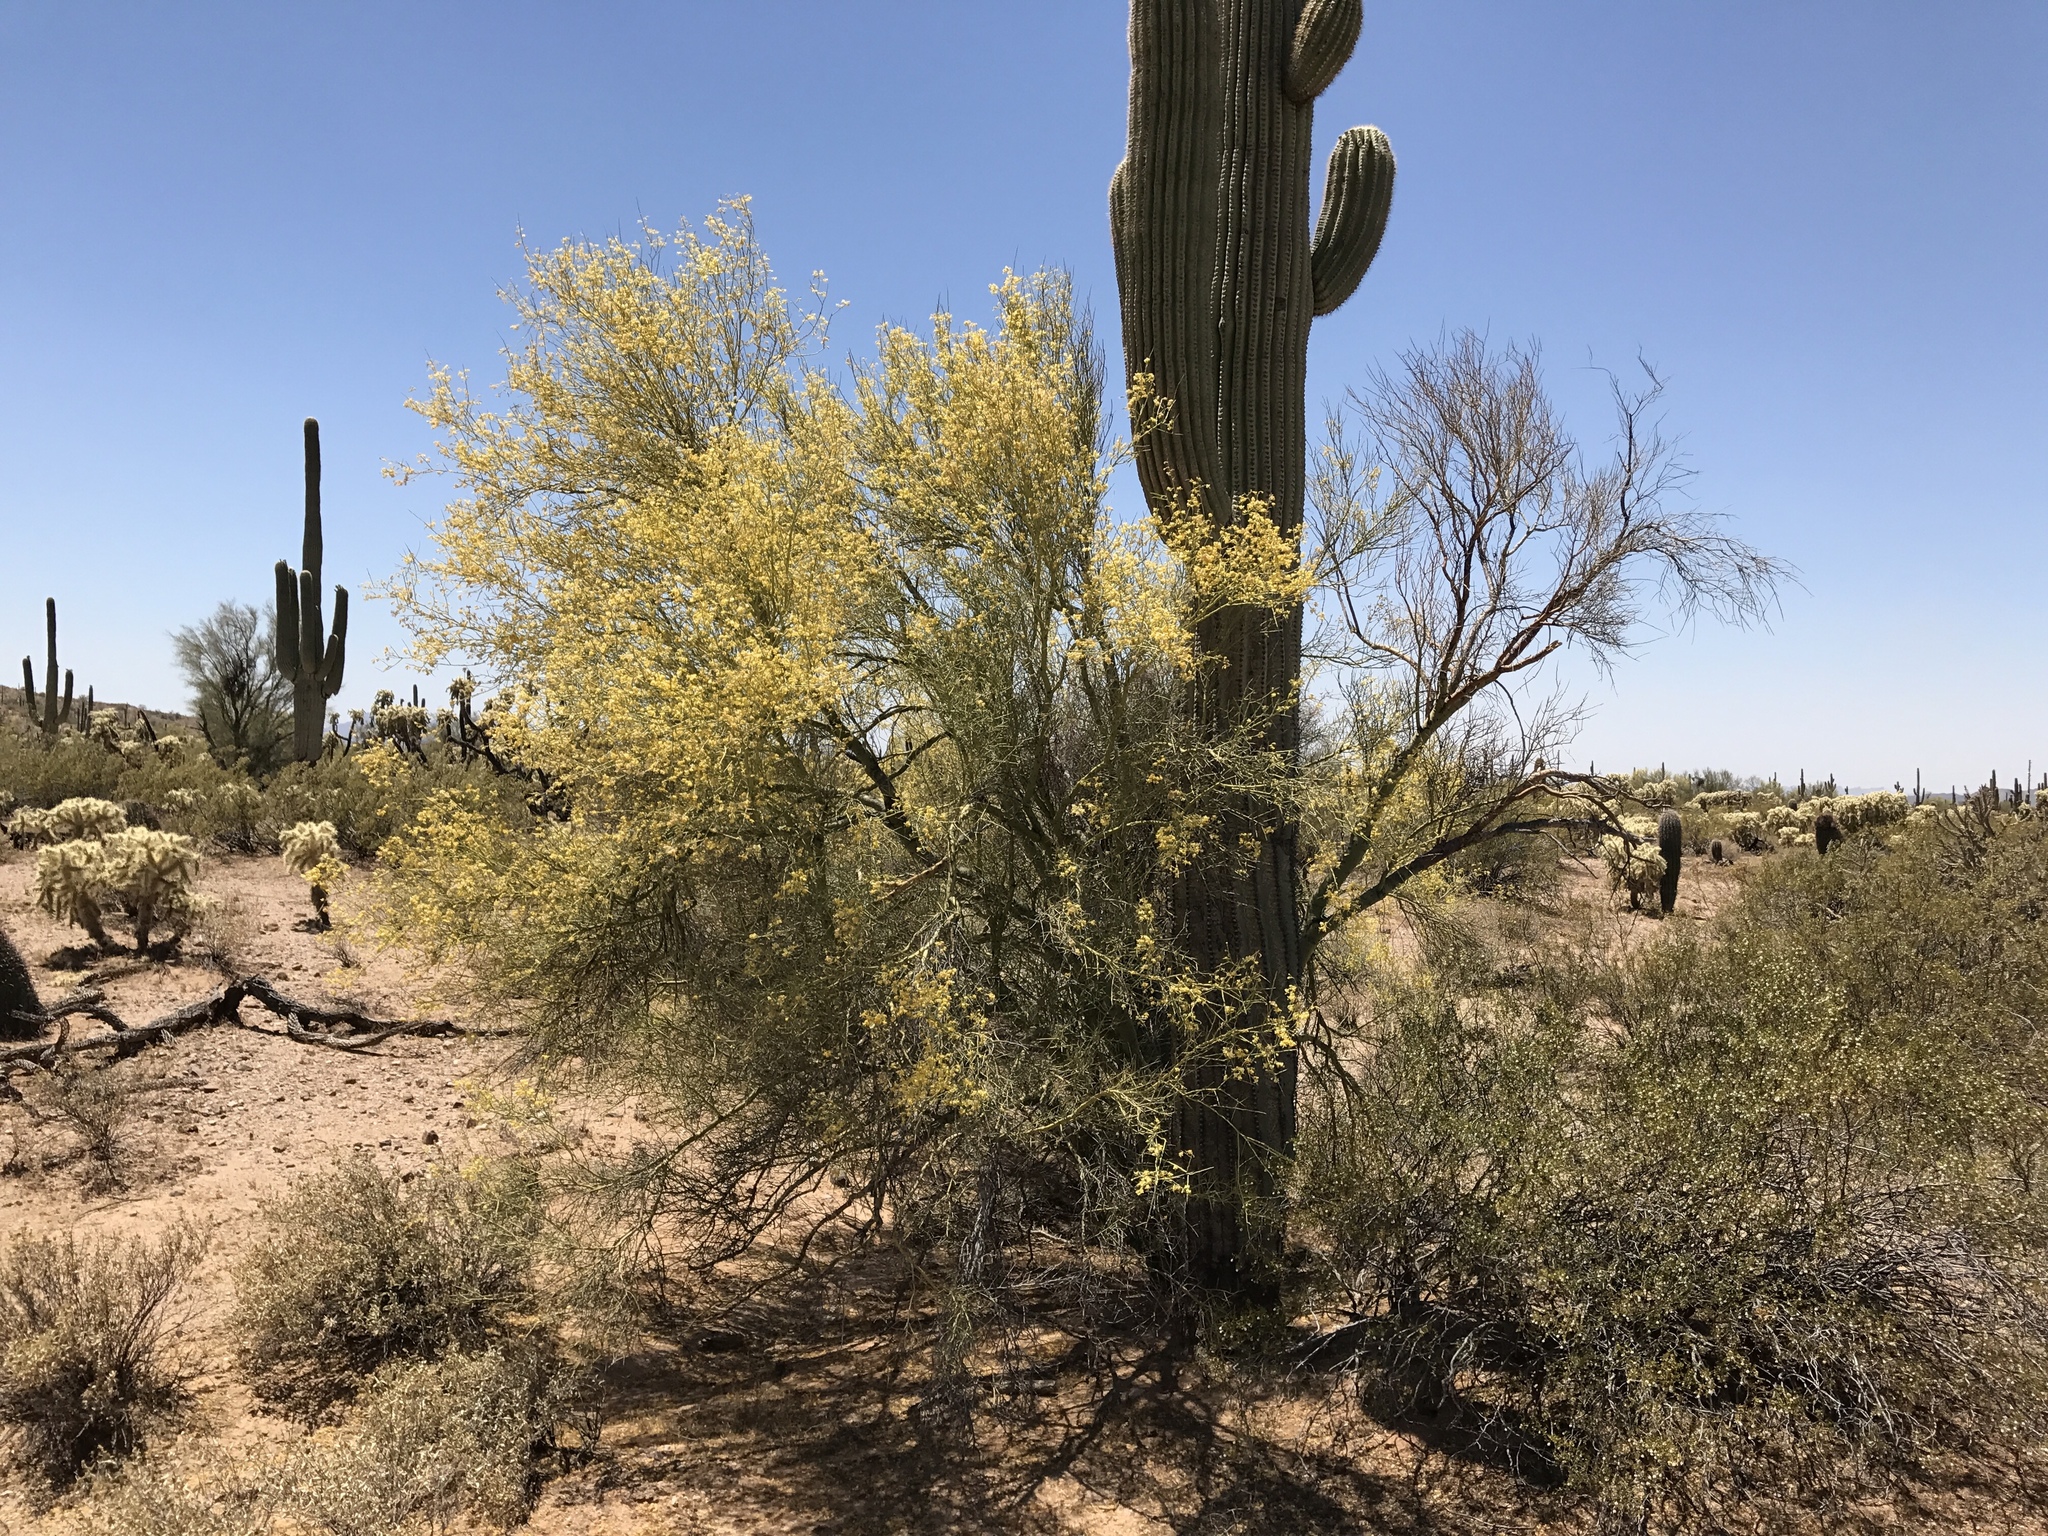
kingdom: Plantae
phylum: Tracheophyta
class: Magnoliopsida
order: Fabales
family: Fabaceae
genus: Parkinsonia
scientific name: Parkinsonia microphylla
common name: Yellow paloverde
